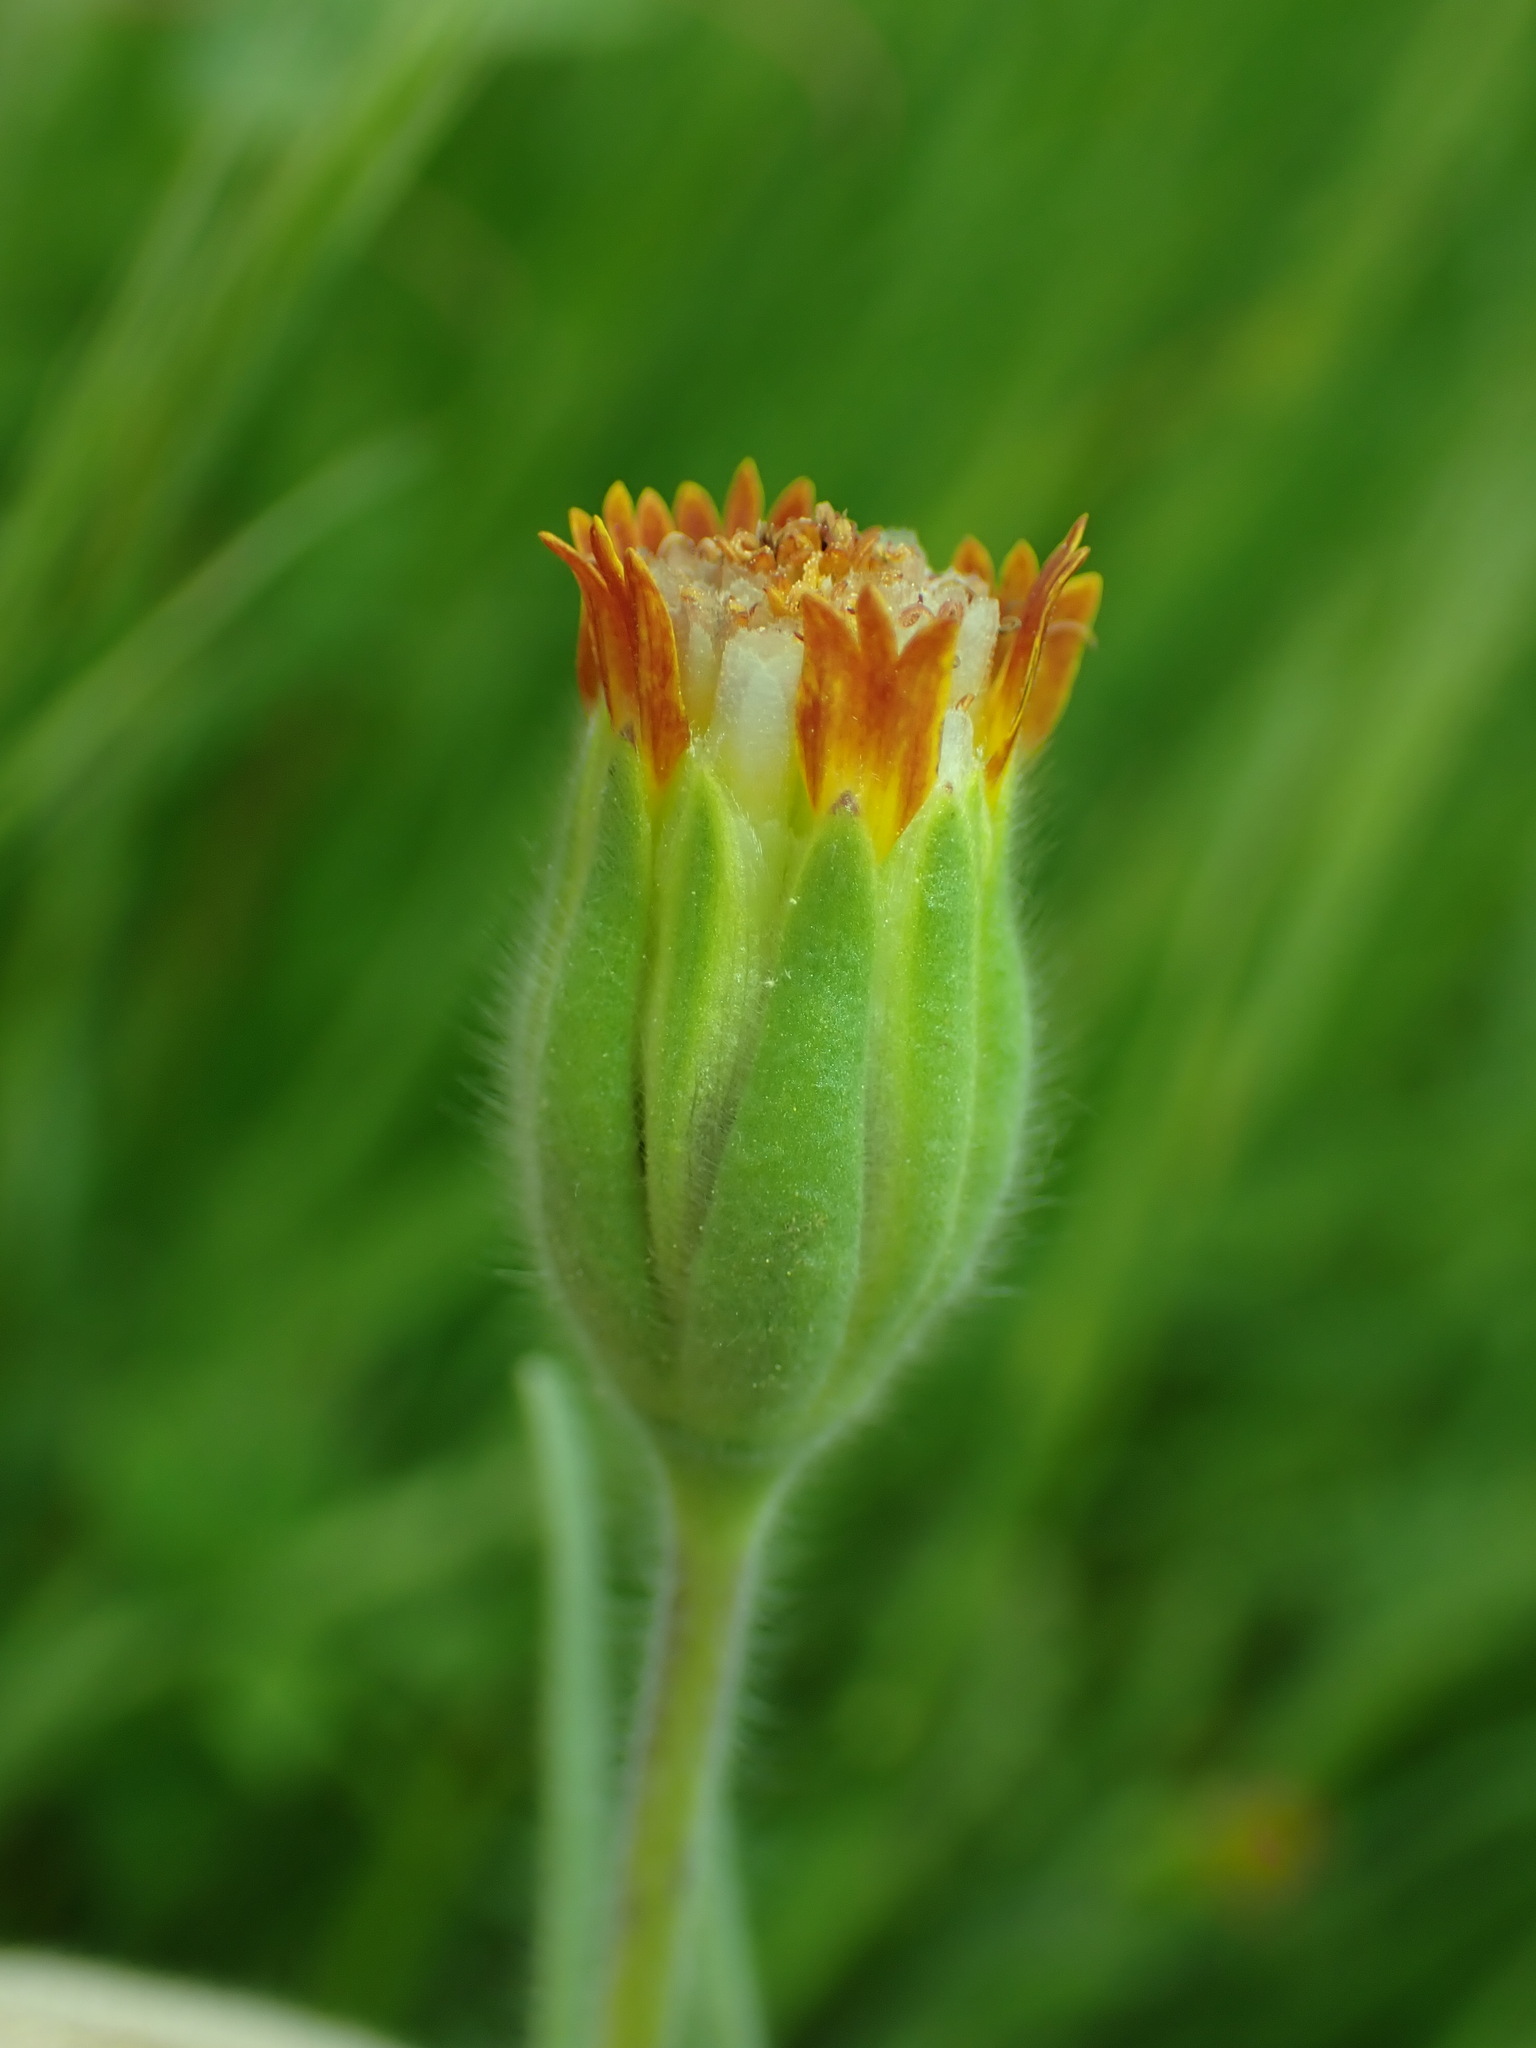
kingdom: Plantae
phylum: Tracheophyta
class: Magnoliopsida
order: Asterales
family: Asteraceae
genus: Achyrachaena
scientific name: Achyrachaena mollis
